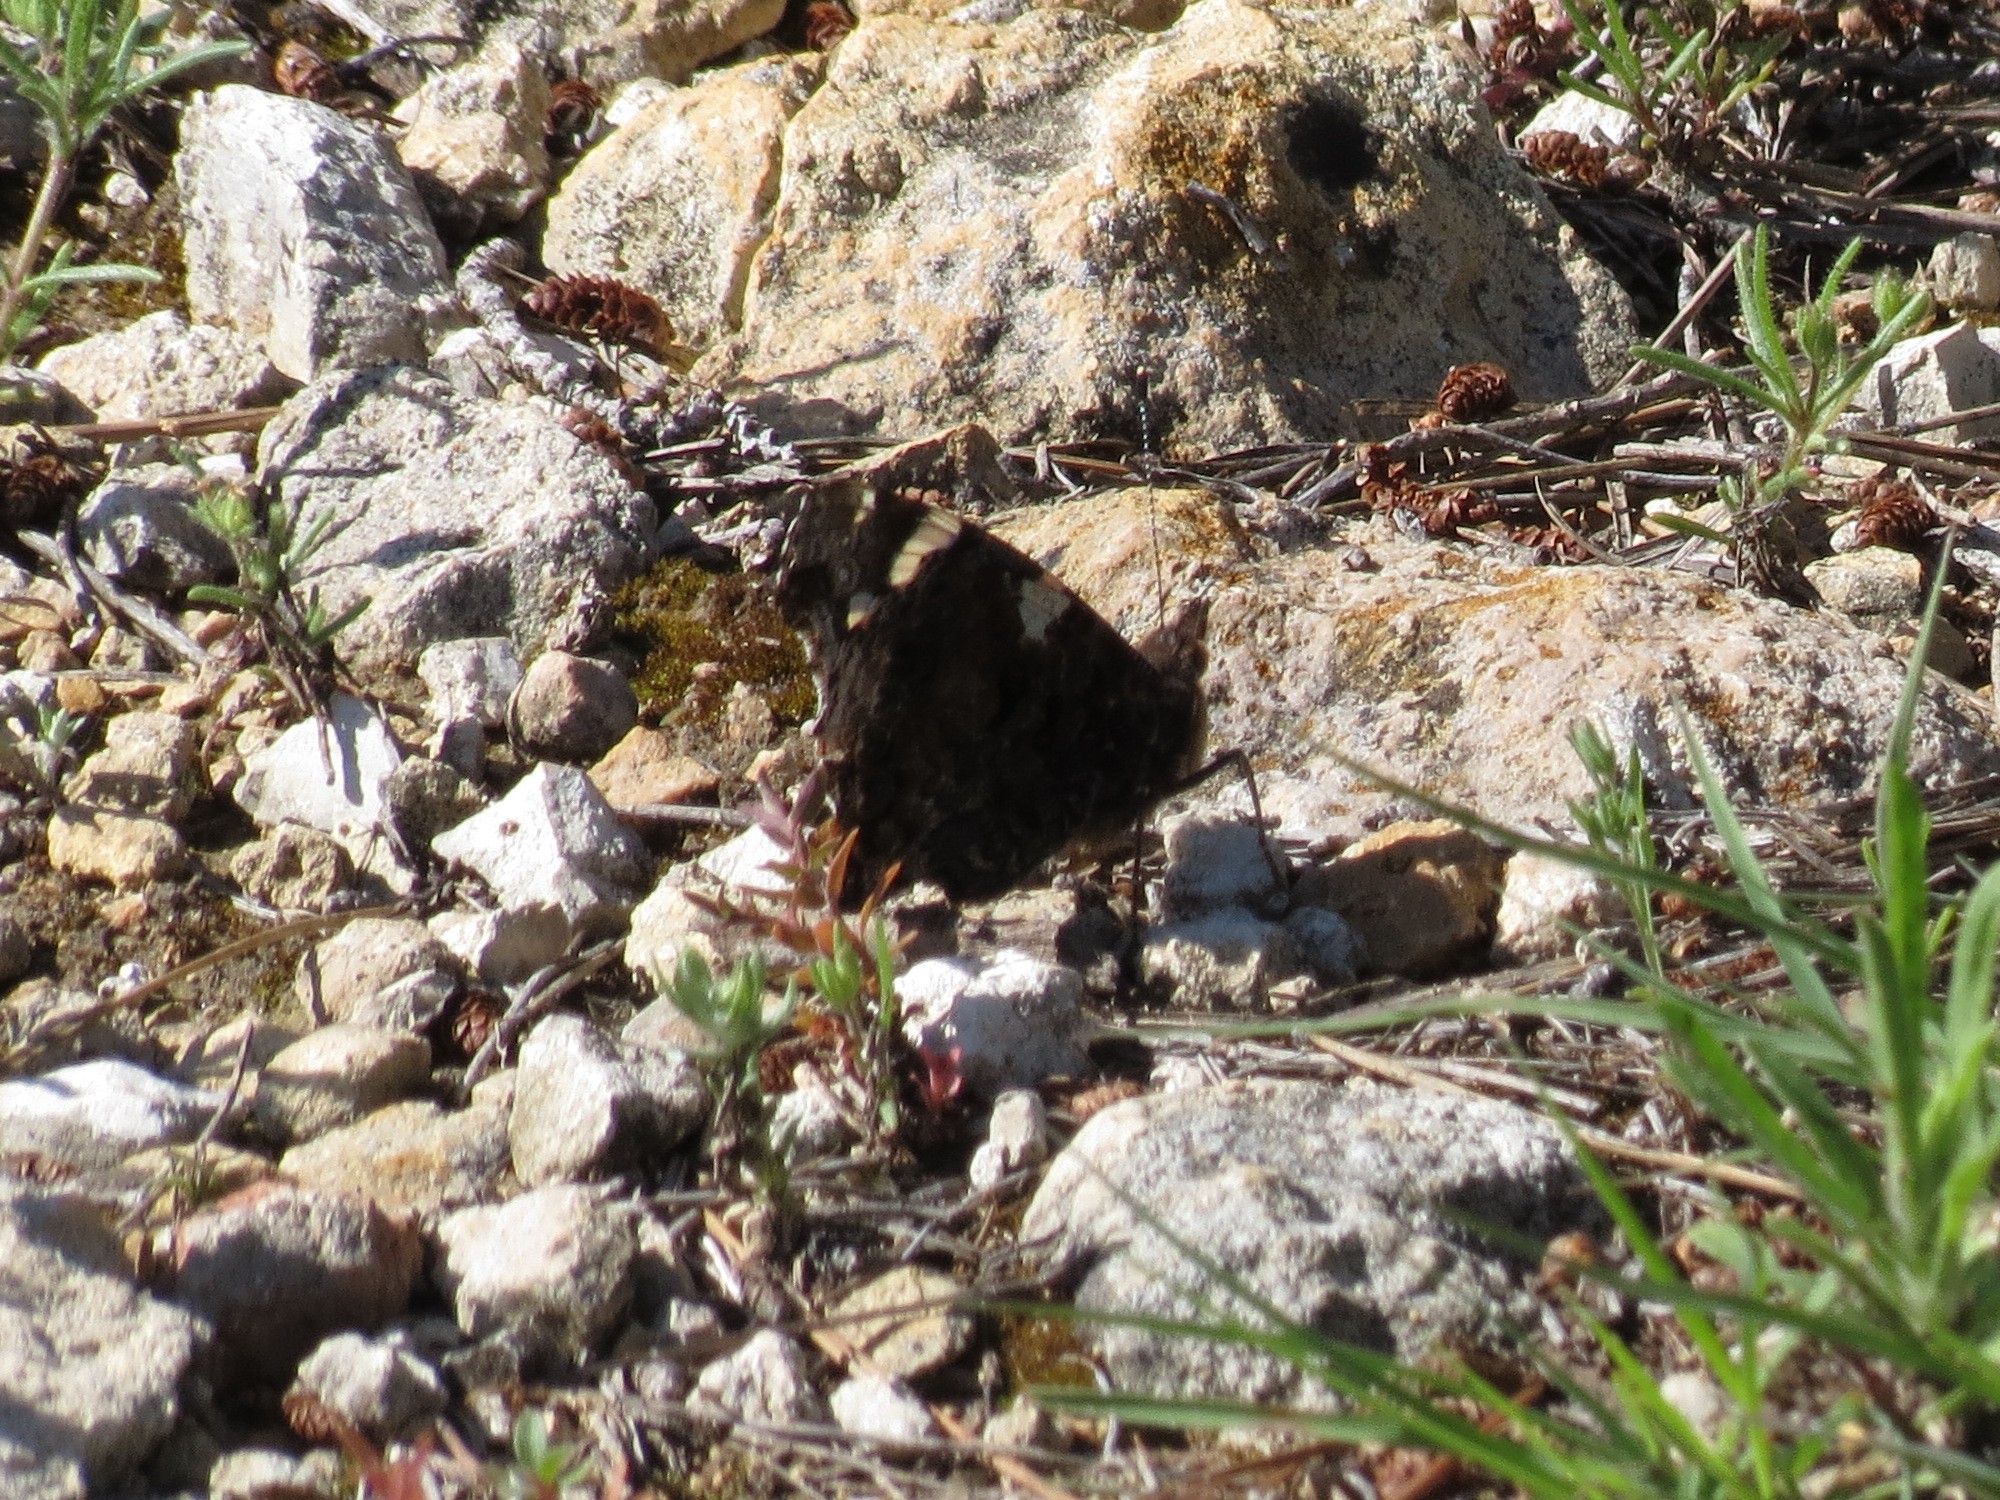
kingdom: Animalia
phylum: Arthropoda
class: Insecta
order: Lepidoptera
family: Nymphalidae
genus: Vanessa
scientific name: Vanessa atalanta
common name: Red admiral
